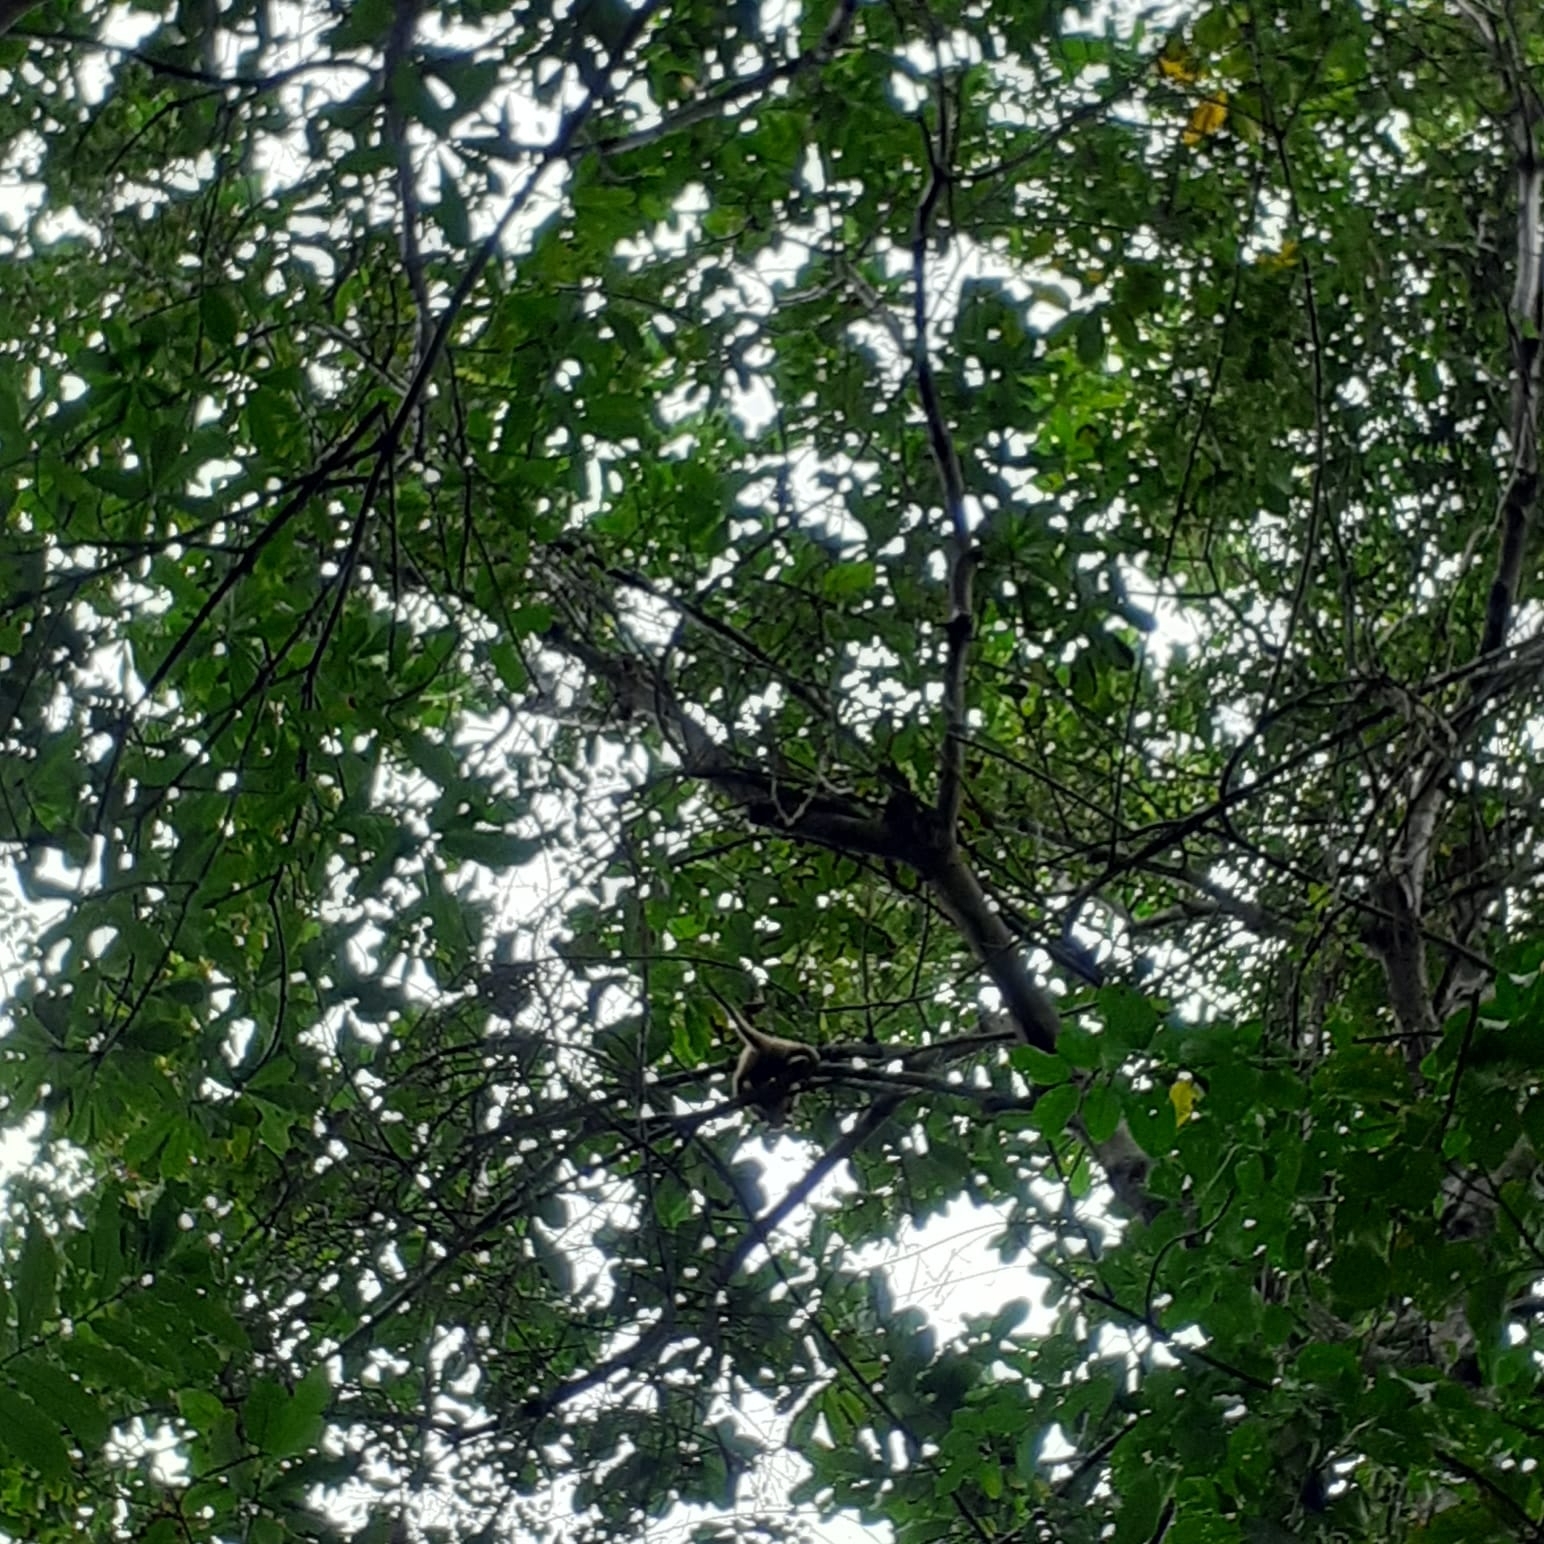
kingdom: Animalia
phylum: Chordata
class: Mammalia
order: Pilosa
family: Myrmecophagidae
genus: Tamandua
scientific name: Tamandua mexicana
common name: Northern tamandua
